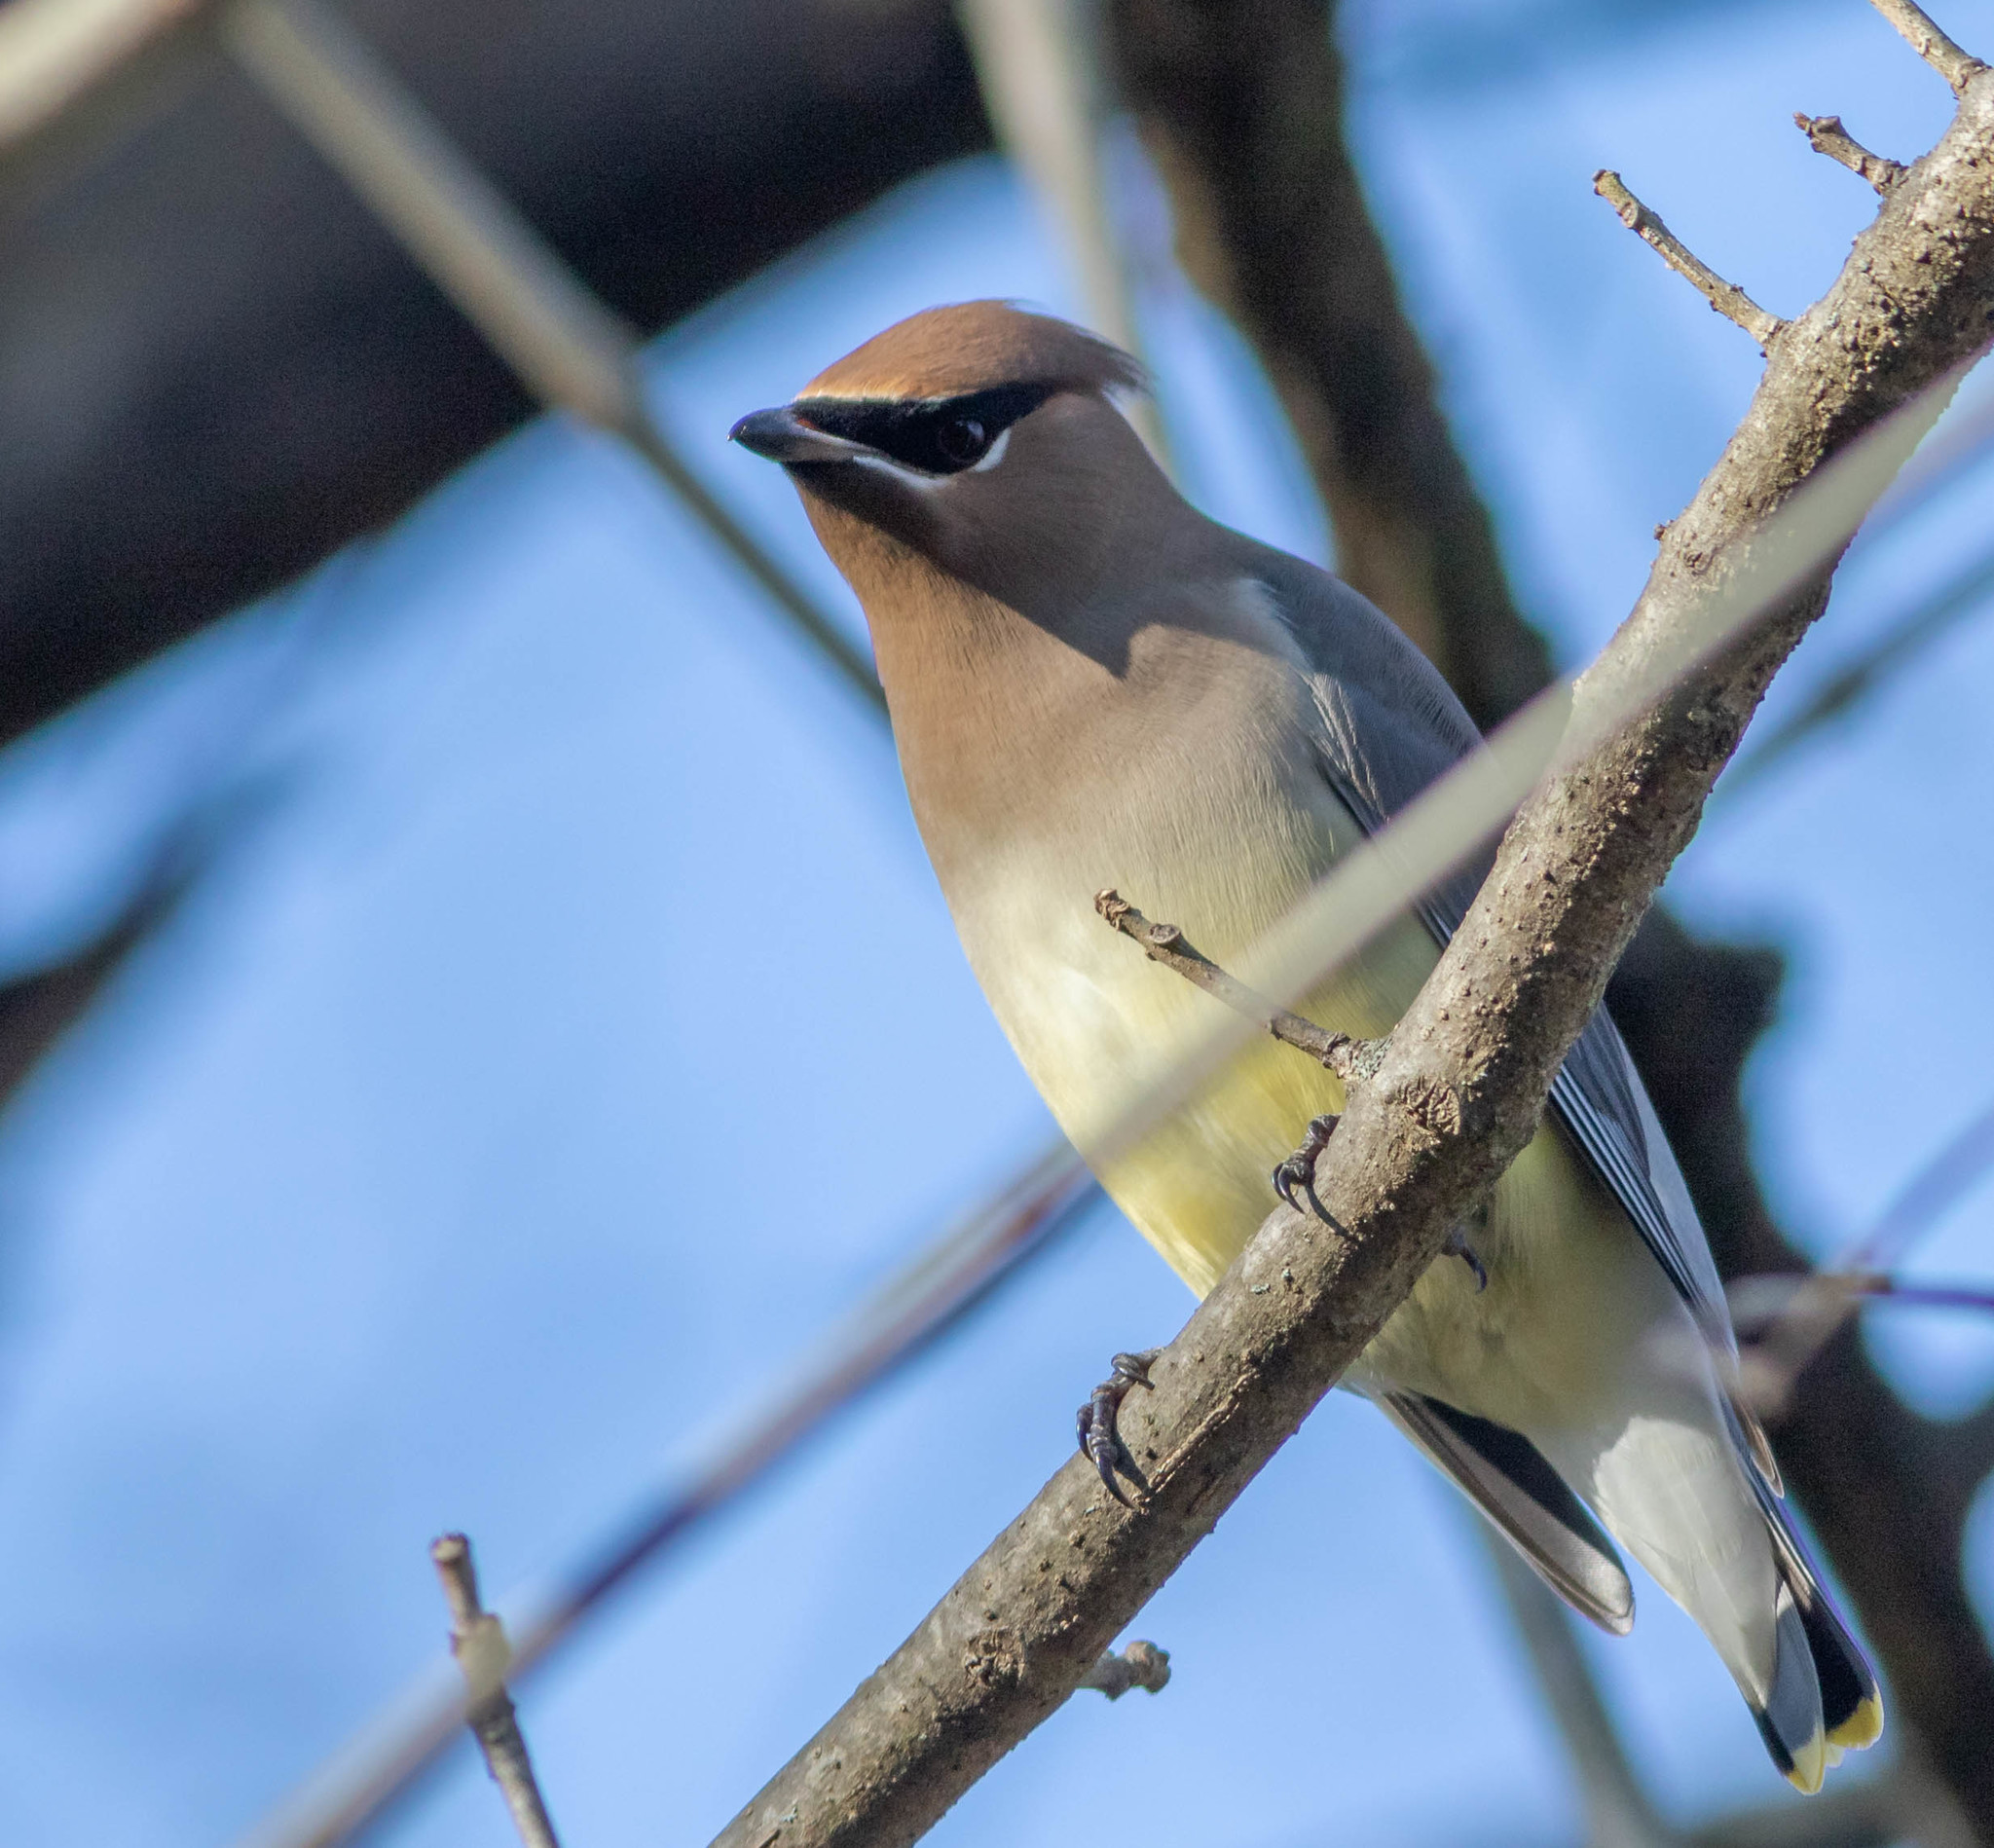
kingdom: Animalia
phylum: Chordata
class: Aves
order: Passeriformes
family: Bombycillidae
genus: Bombycilla
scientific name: Bombycilla cedrorum
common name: Cedar waxwing
